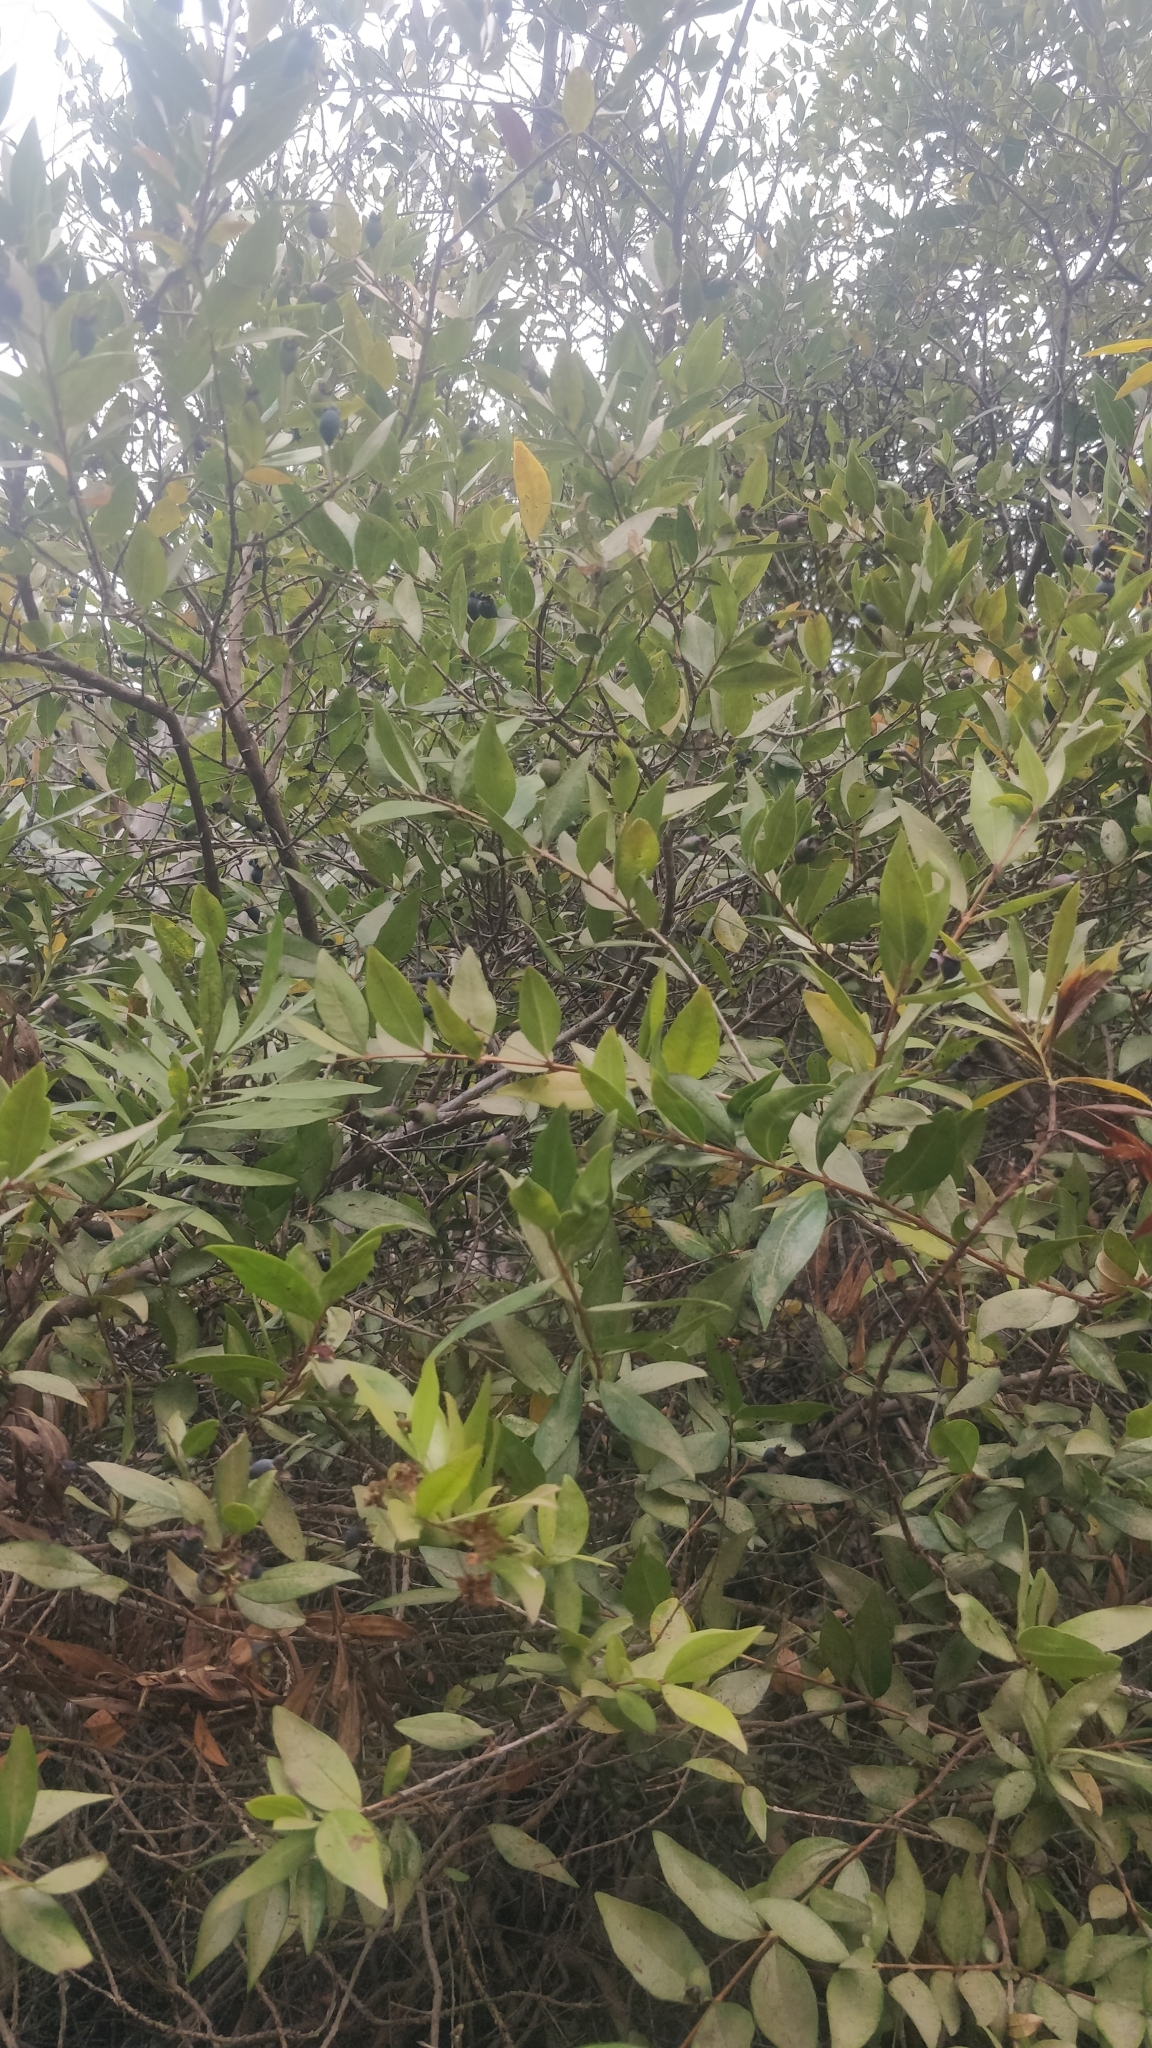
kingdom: Plantae
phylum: Tracheophyta
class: Magnoliopsida
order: Myrtales
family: Myrtaceae
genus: Myrtus
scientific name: Myrtus communis
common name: Myrtle
